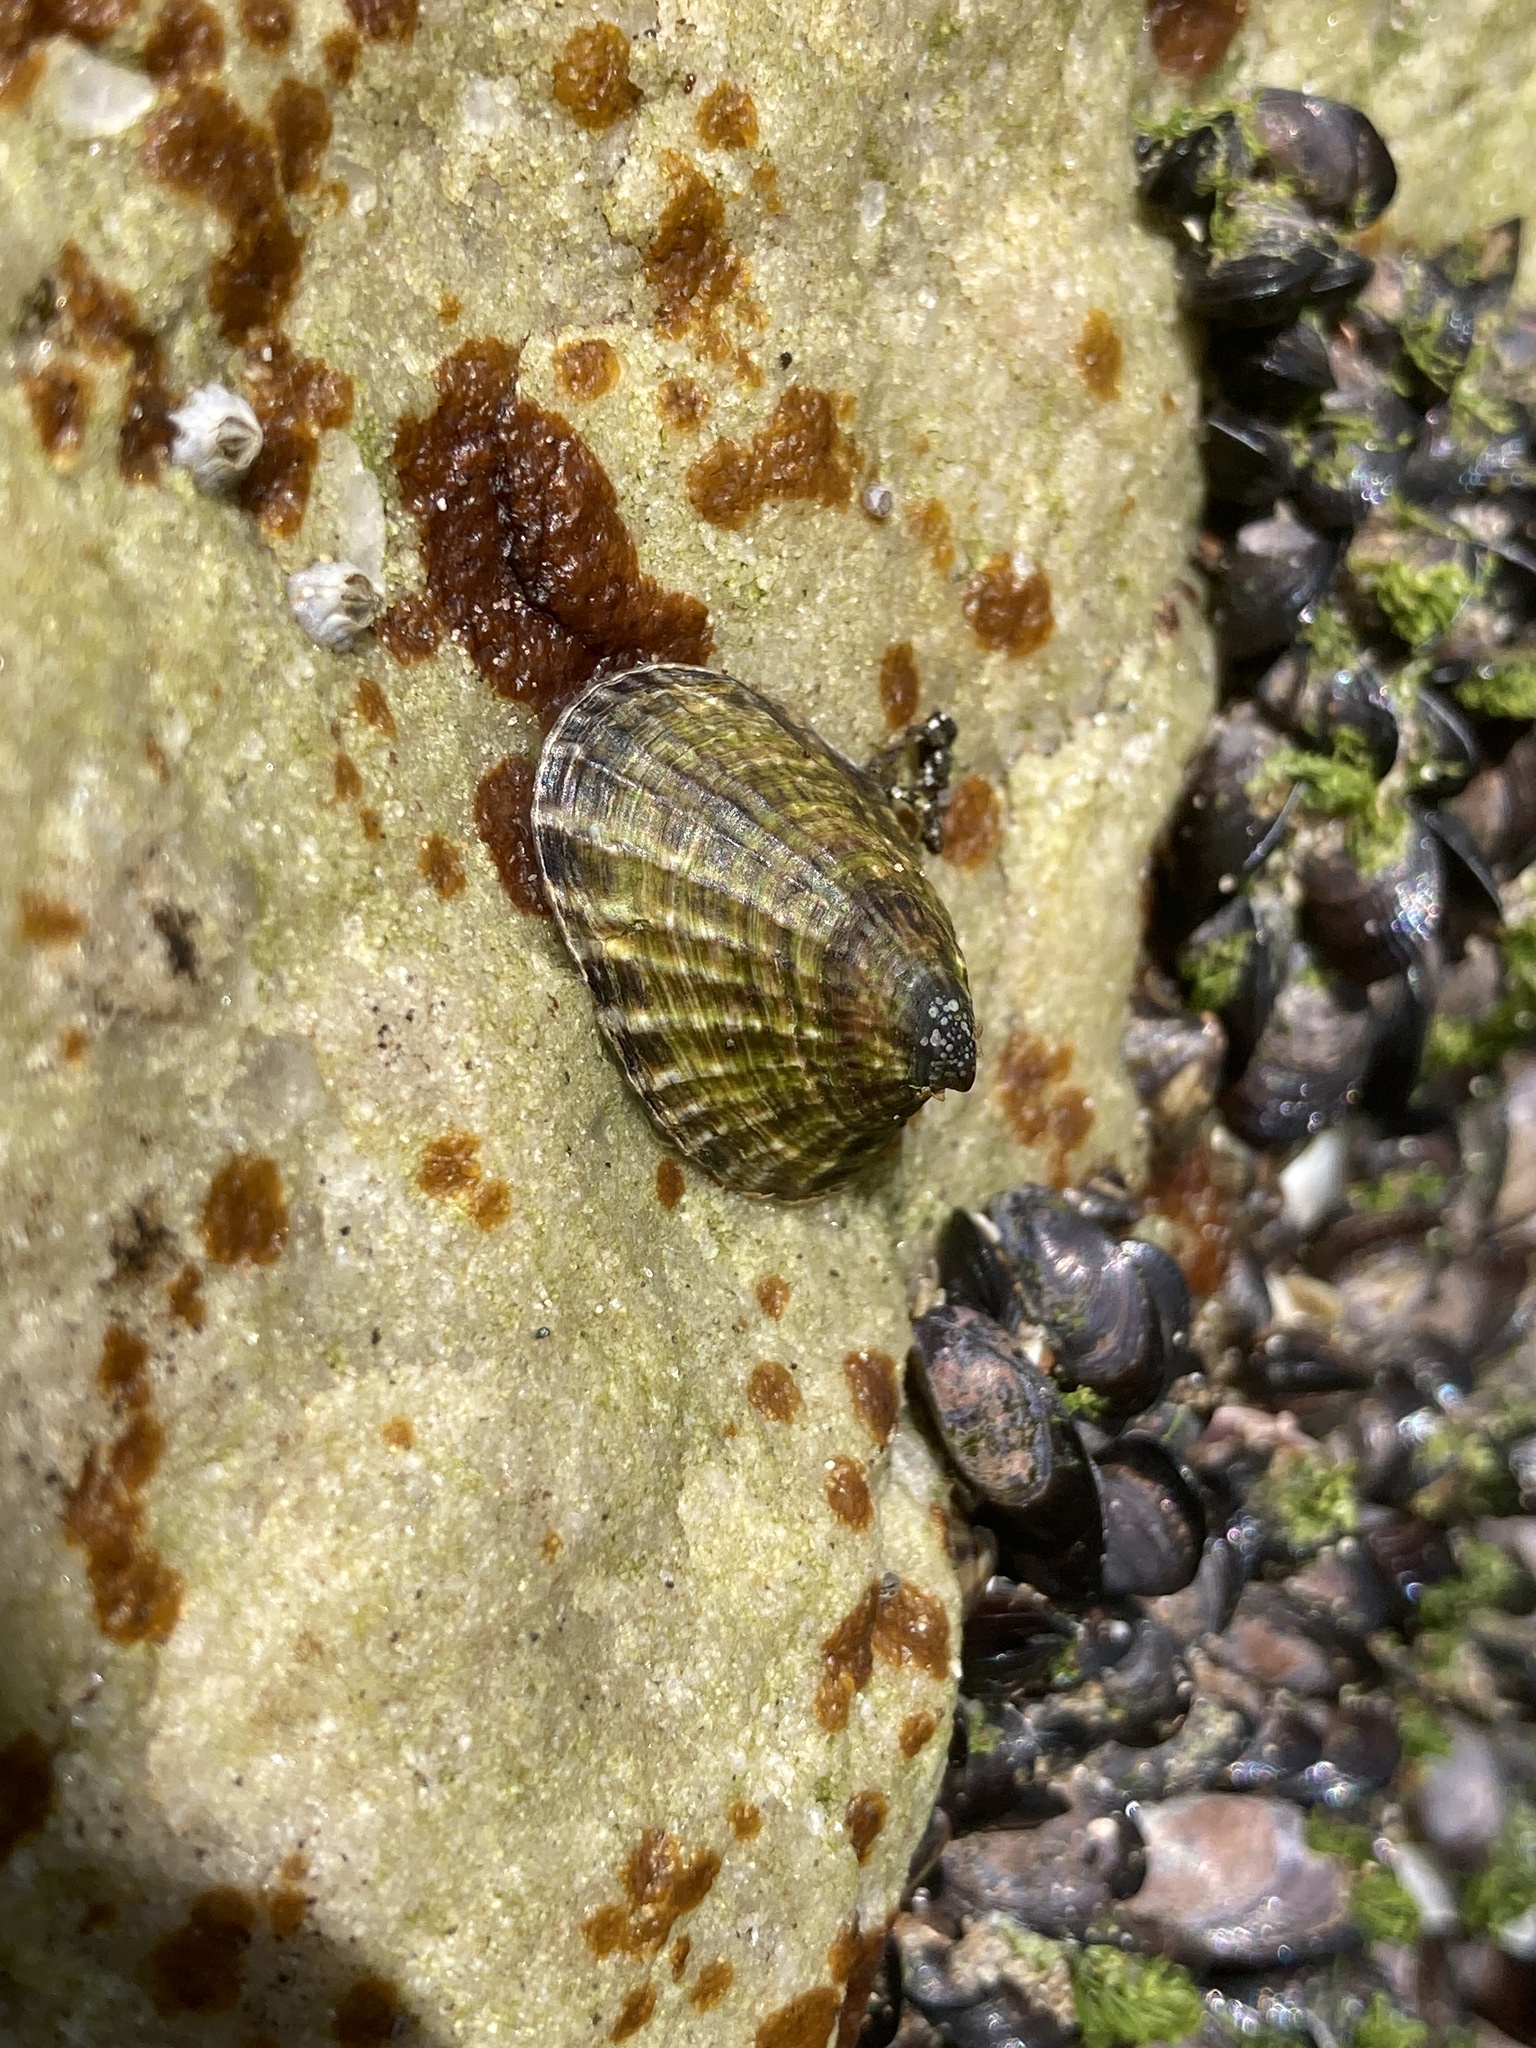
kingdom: Animalia
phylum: Mollusca
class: Gastropoda
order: Siphonariida
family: Siphonariidae
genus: Siphonaria
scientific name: Siphonaria lessonii
